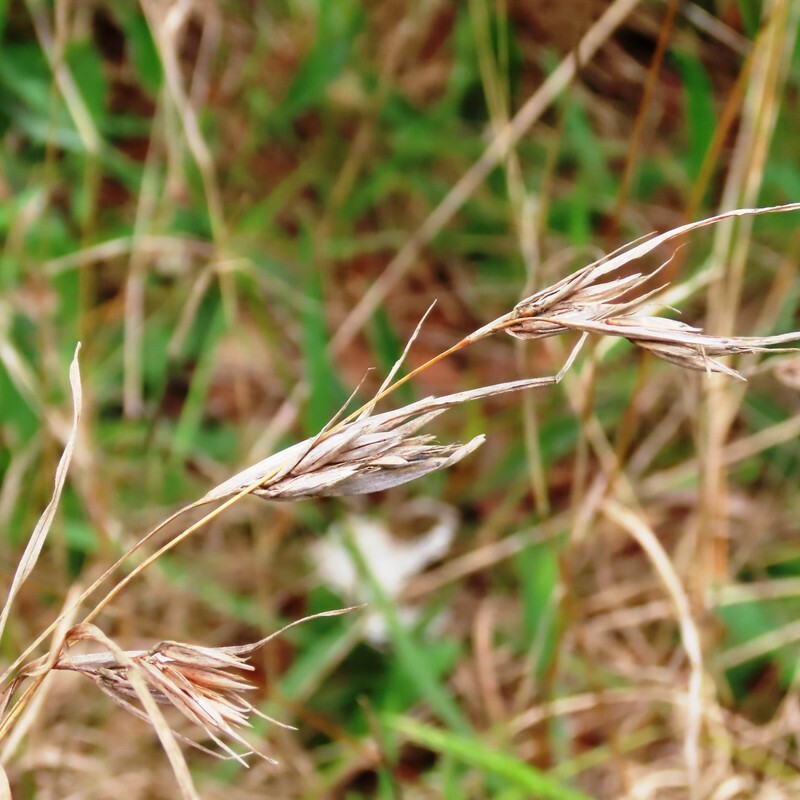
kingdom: Plantae
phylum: Tracheophyta
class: Liliopsida
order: Poales
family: Poaceae
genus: Themeda
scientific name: Themeda triandra
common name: Kangaroo grass
